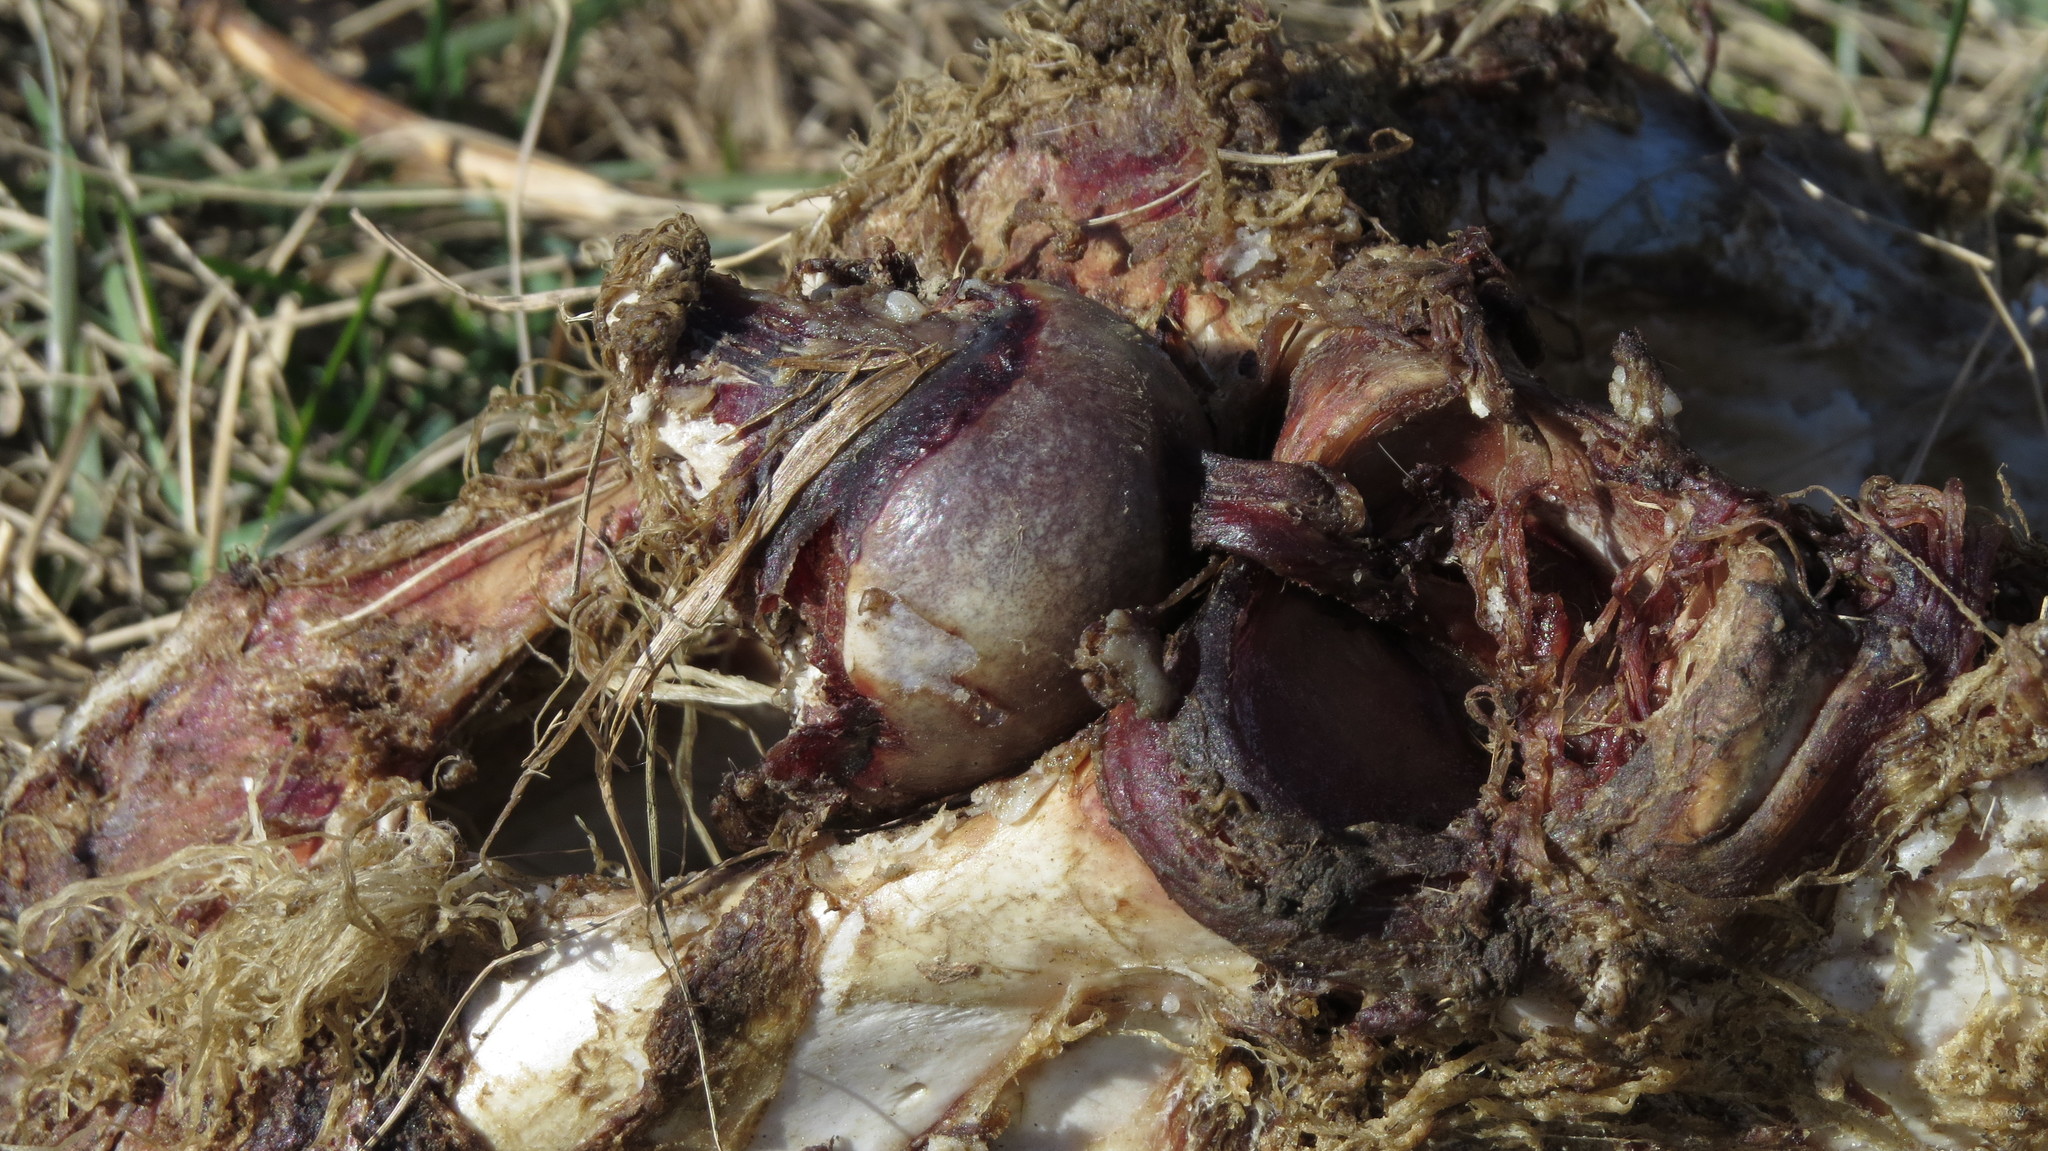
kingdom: Animalia
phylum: Chordata
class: Mammalia
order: Artiodactyla
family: Cervidae
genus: Odocoileus
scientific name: Odocoileus virginianus
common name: White-tailed deer
